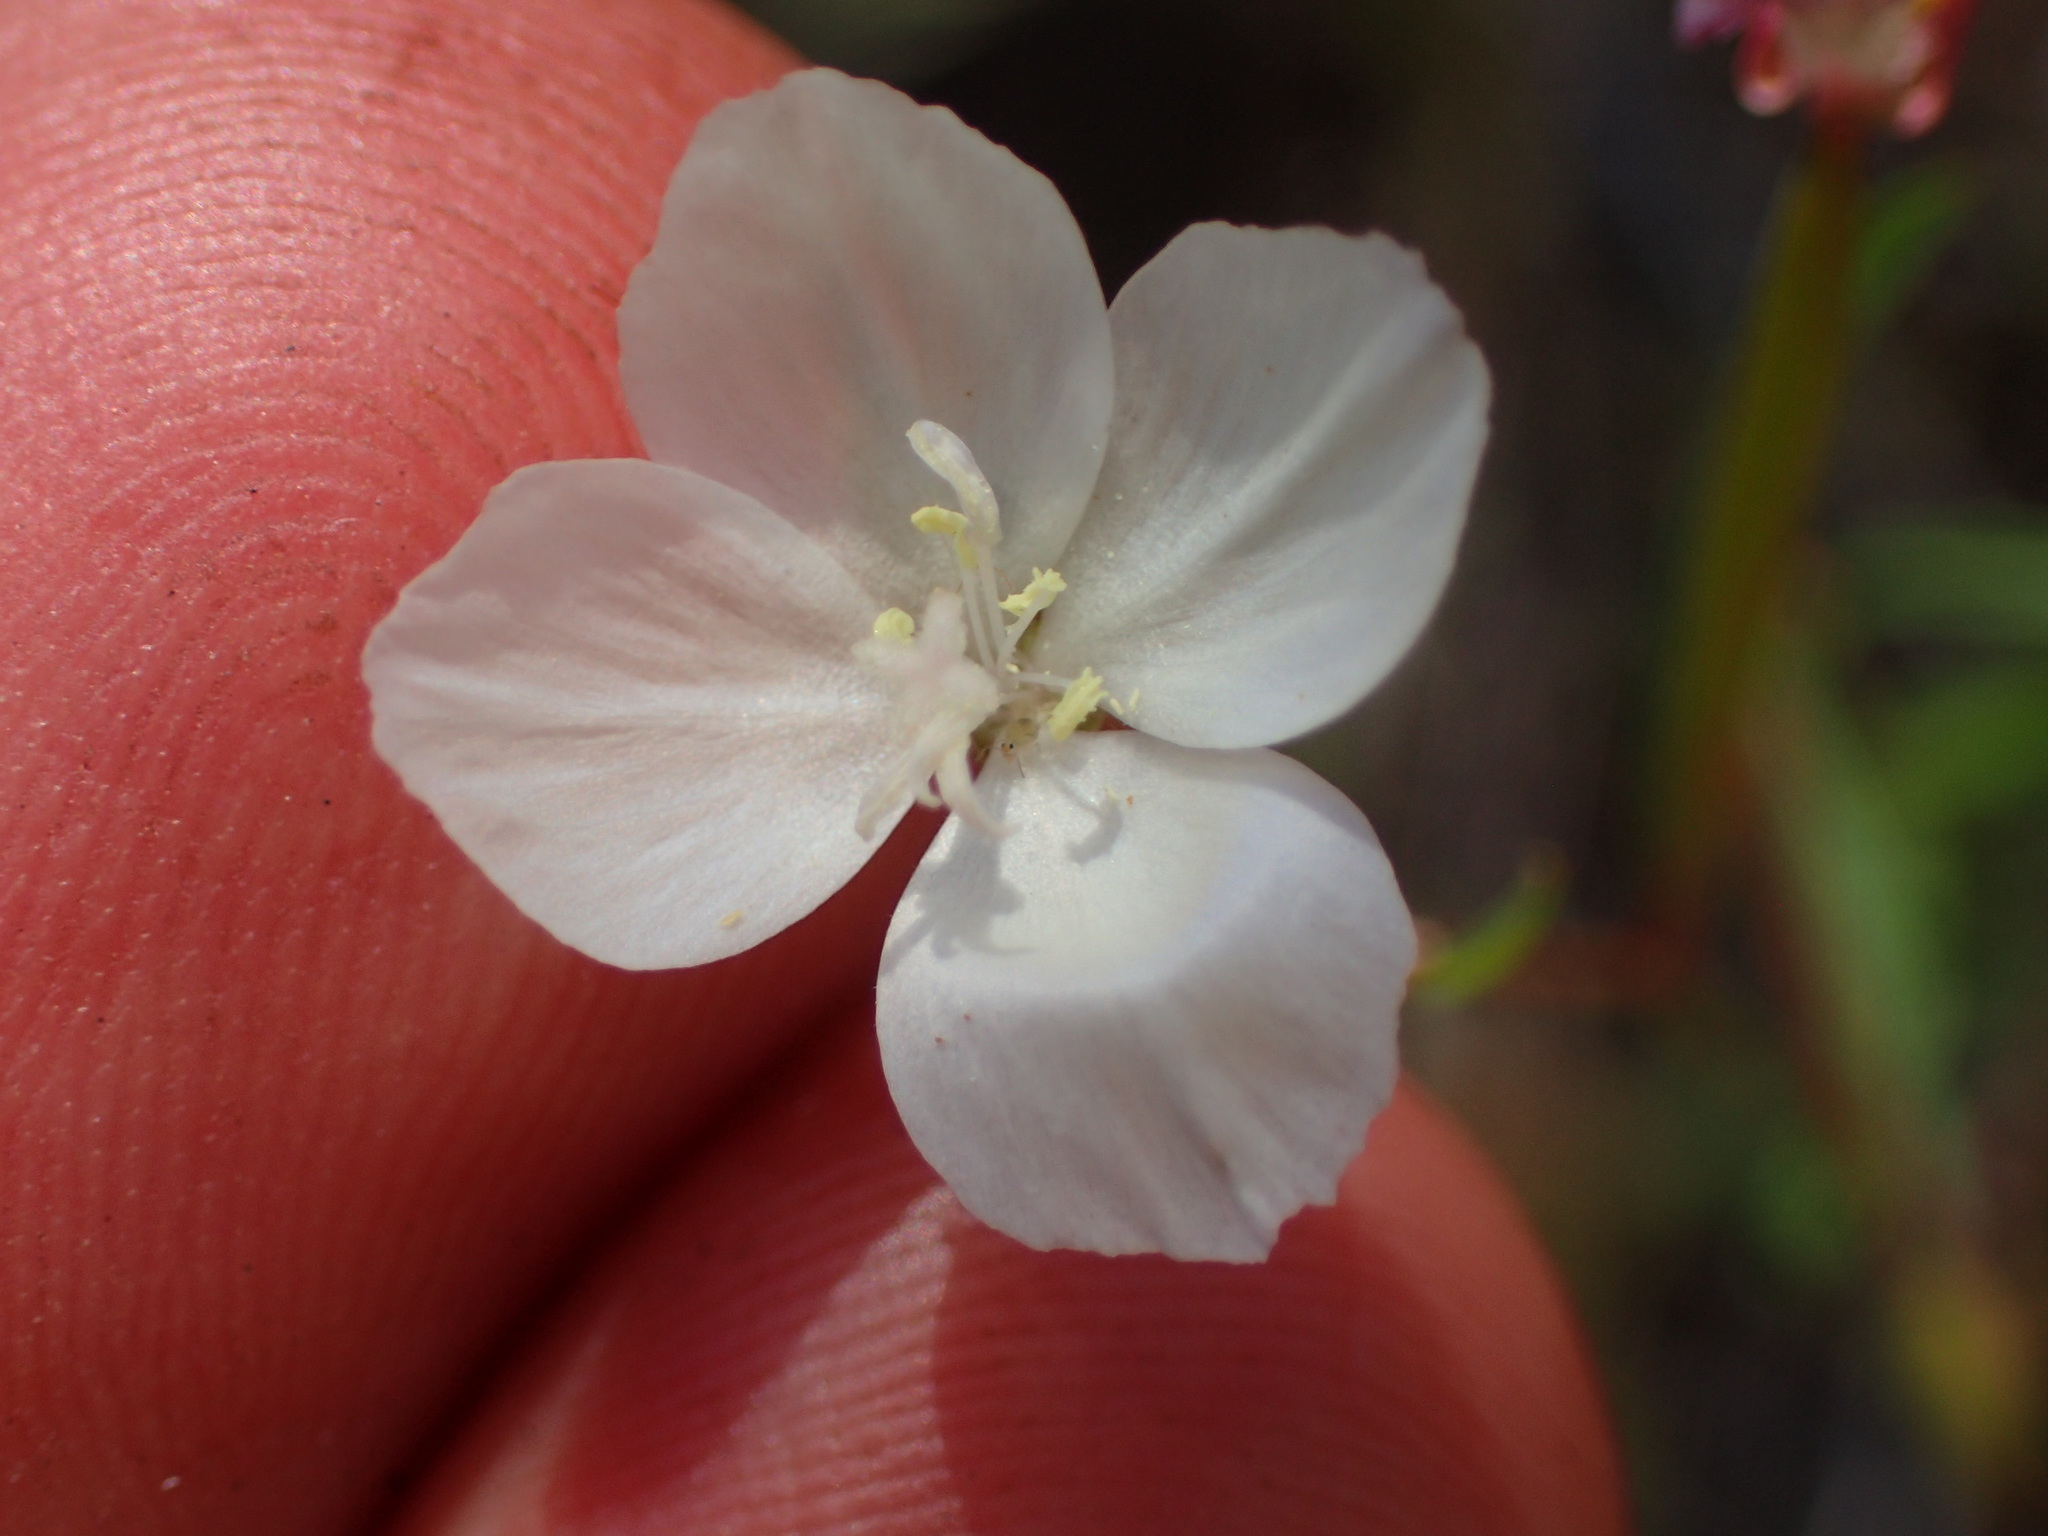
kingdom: Plantae
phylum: Tracheophyta
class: Magnoliopsida
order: Myrtales
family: Onagraceae
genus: Clarkia
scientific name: Clarkia epilobioides
